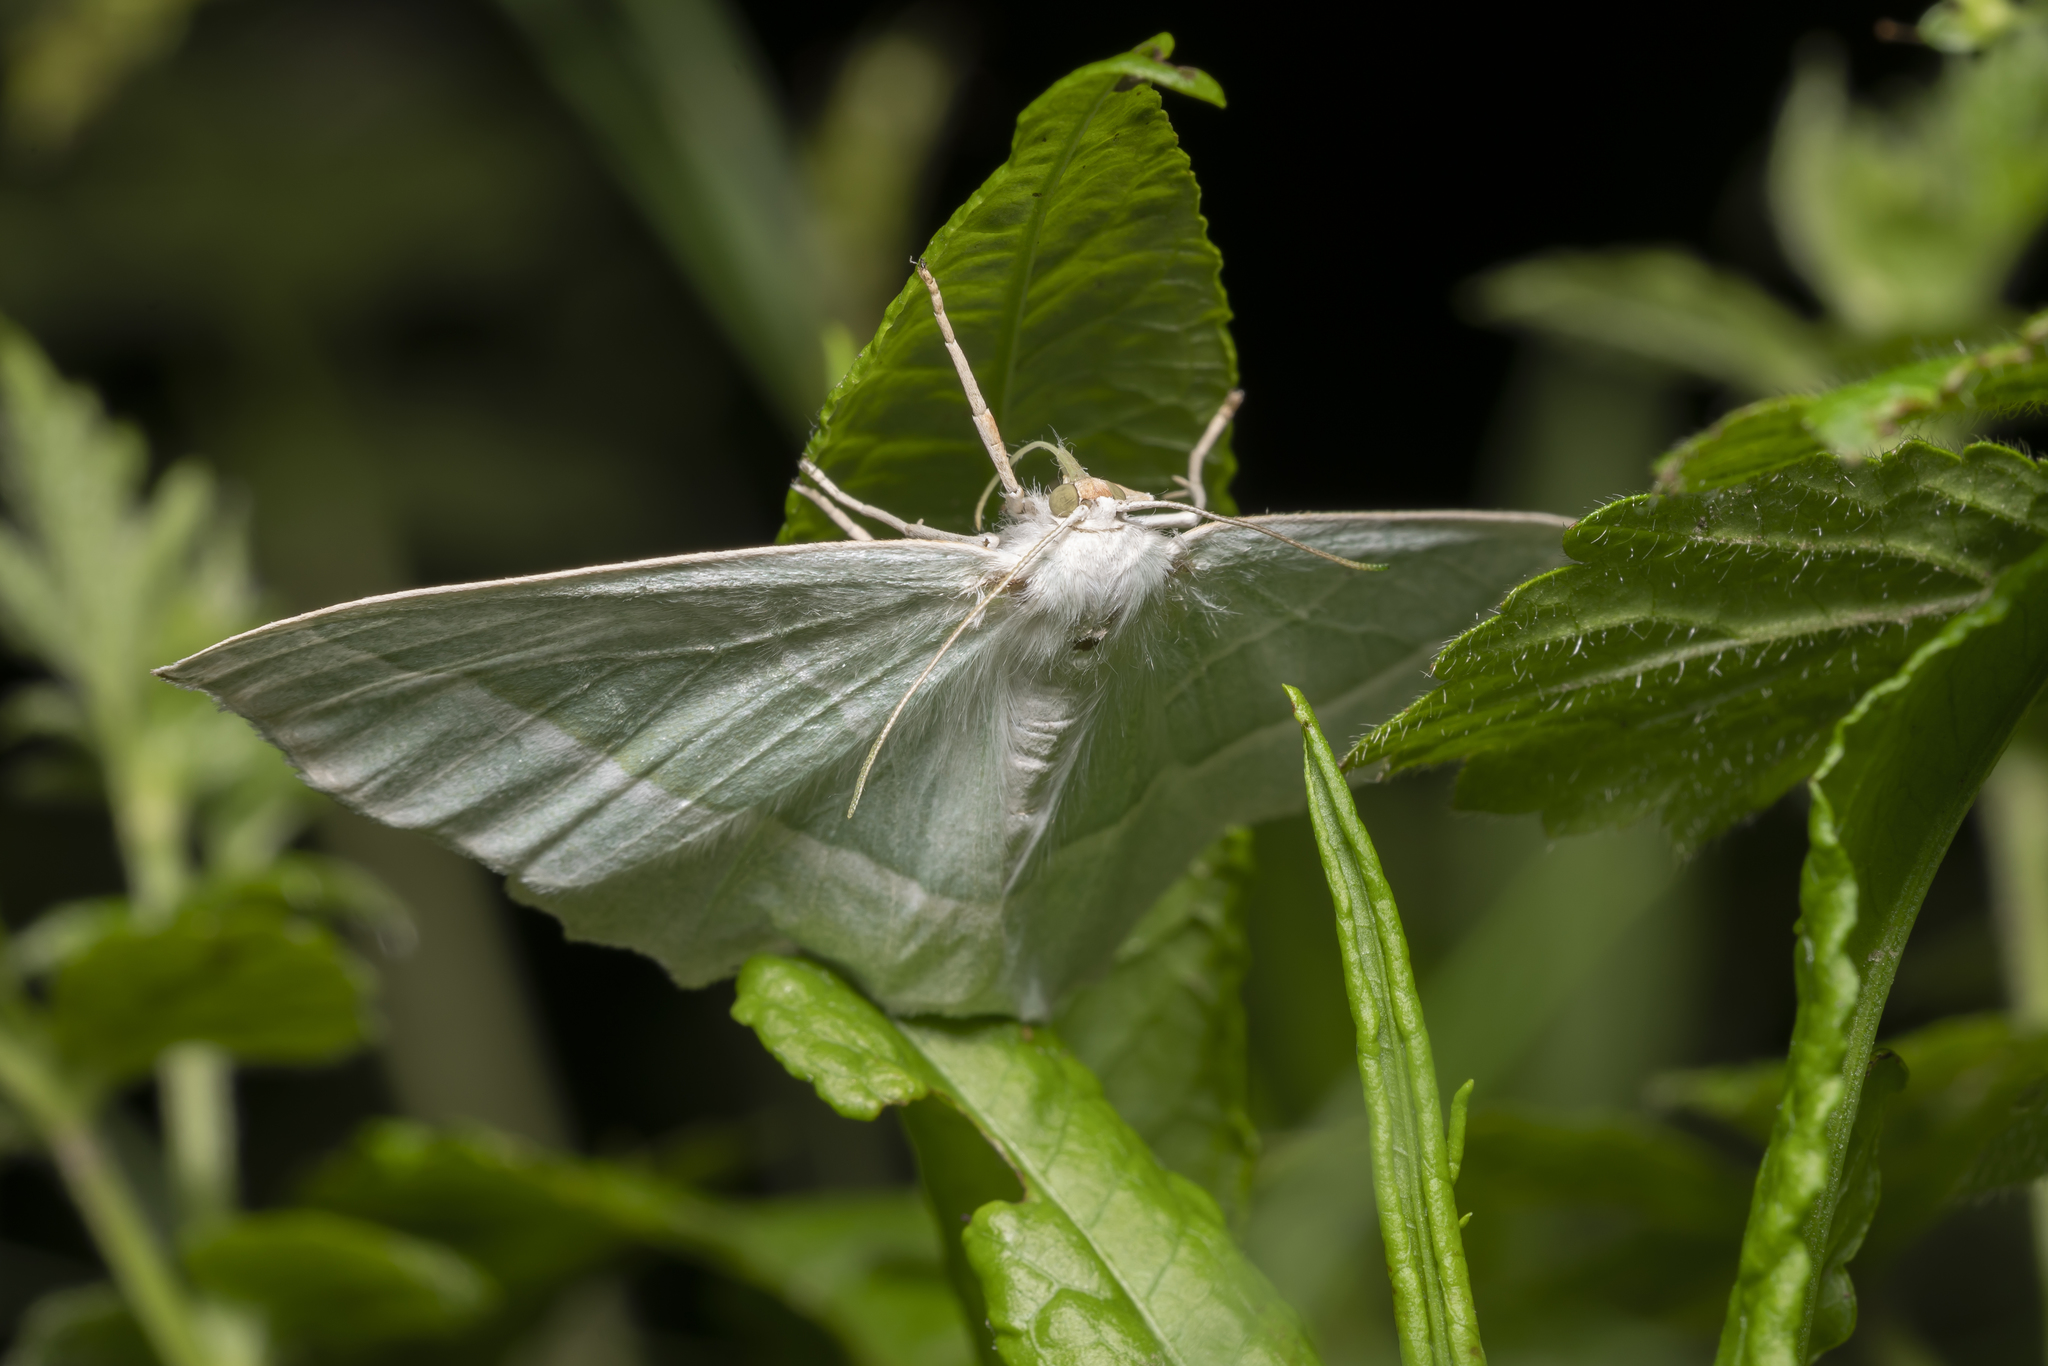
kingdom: Animalia
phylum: Arthropoda
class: Insecta
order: Lepidoptera
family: Geometridae
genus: Campaea
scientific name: Campaea margaritaria
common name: Light emerald
